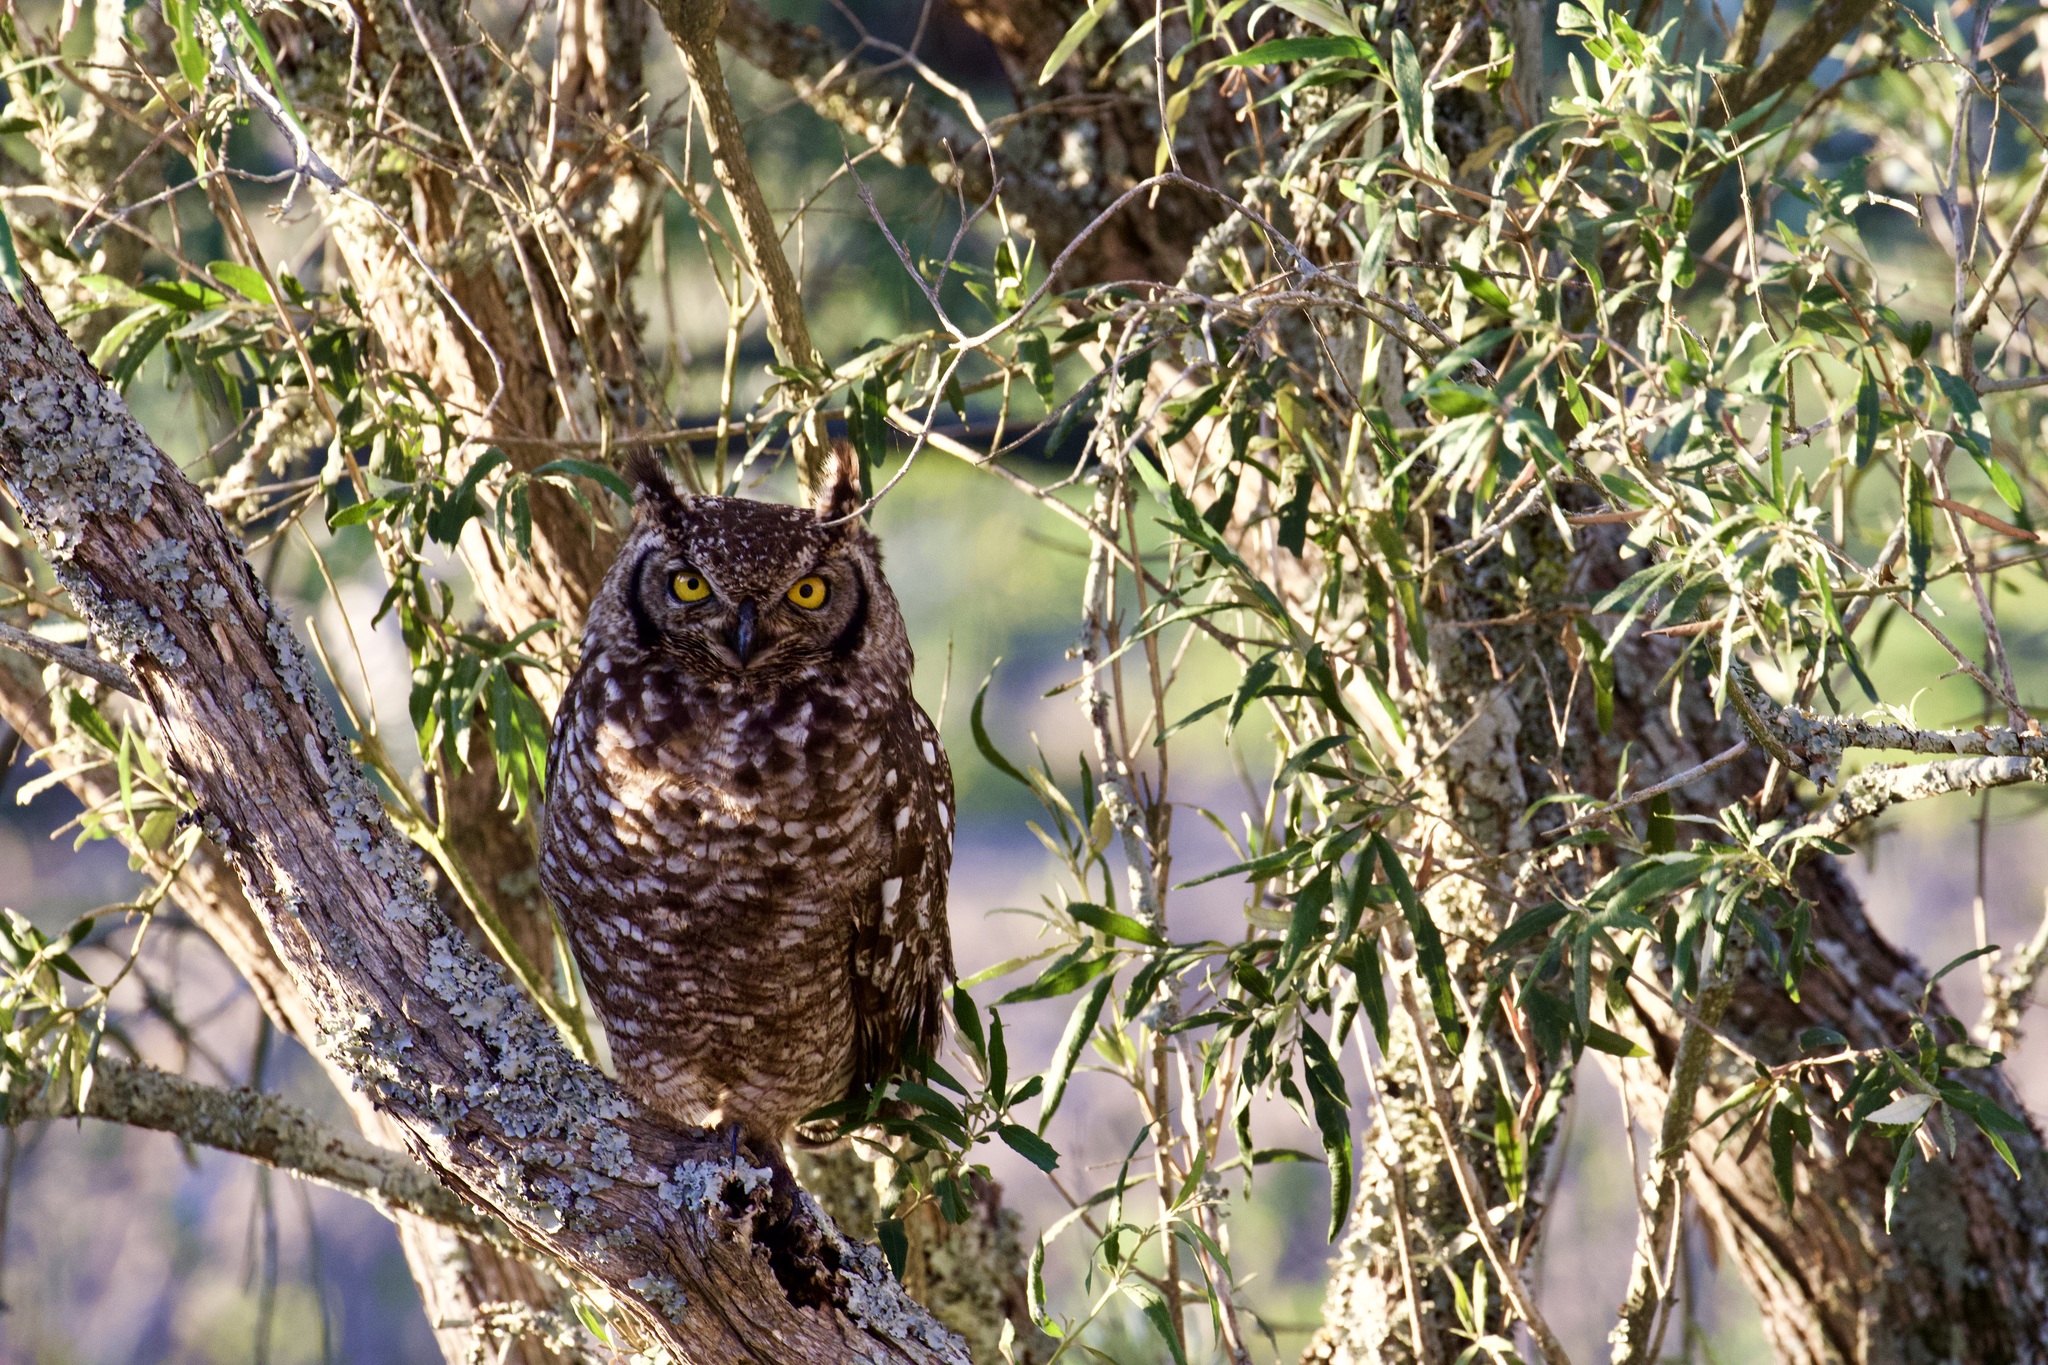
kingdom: Animalia
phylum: Chordata
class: Aves
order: Strigiformes
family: Strigidae
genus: Bubo
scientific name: Bubo africanus
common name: Spotted eagle-owl
